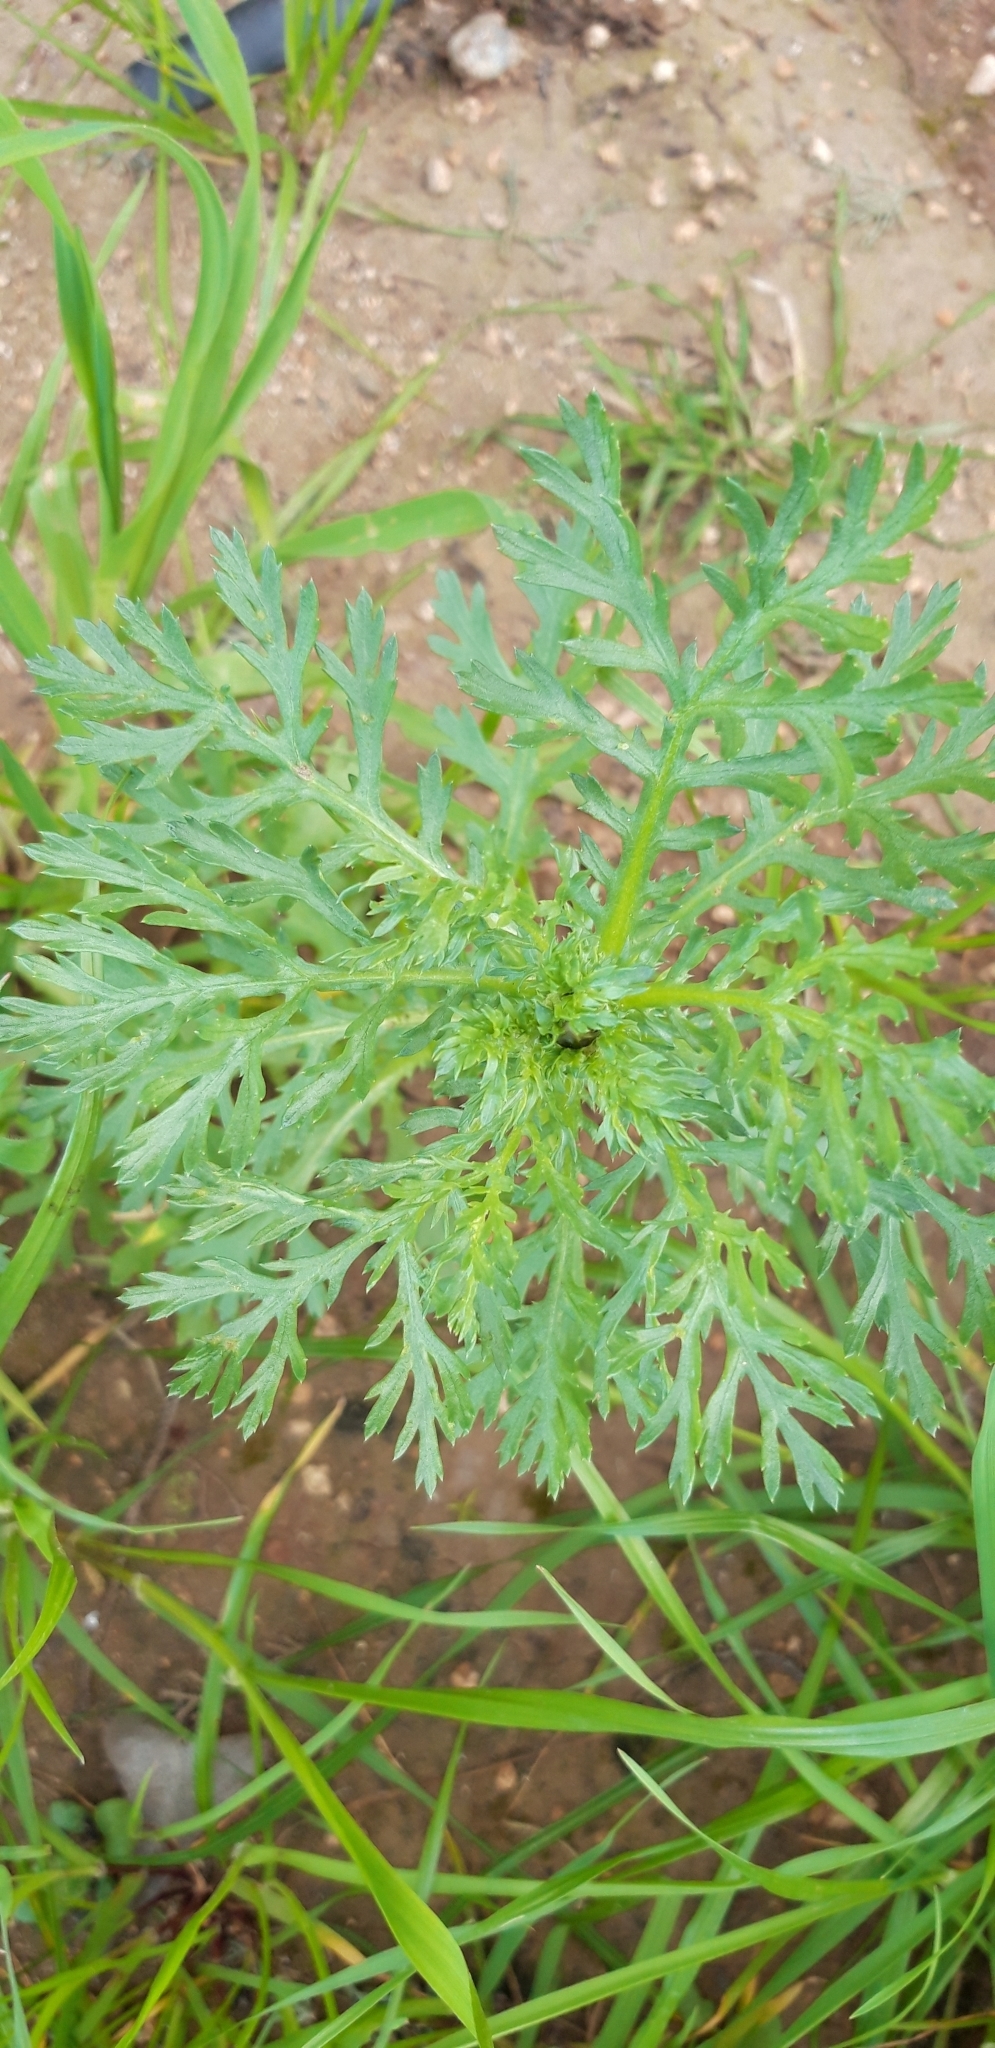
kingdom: Plantae
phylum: Tracheophyta
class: Magnoliopsida
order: Asterales
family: Asteraceae
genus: Glebionis
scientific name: Glebionis coronaria
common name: Crowndaisy
